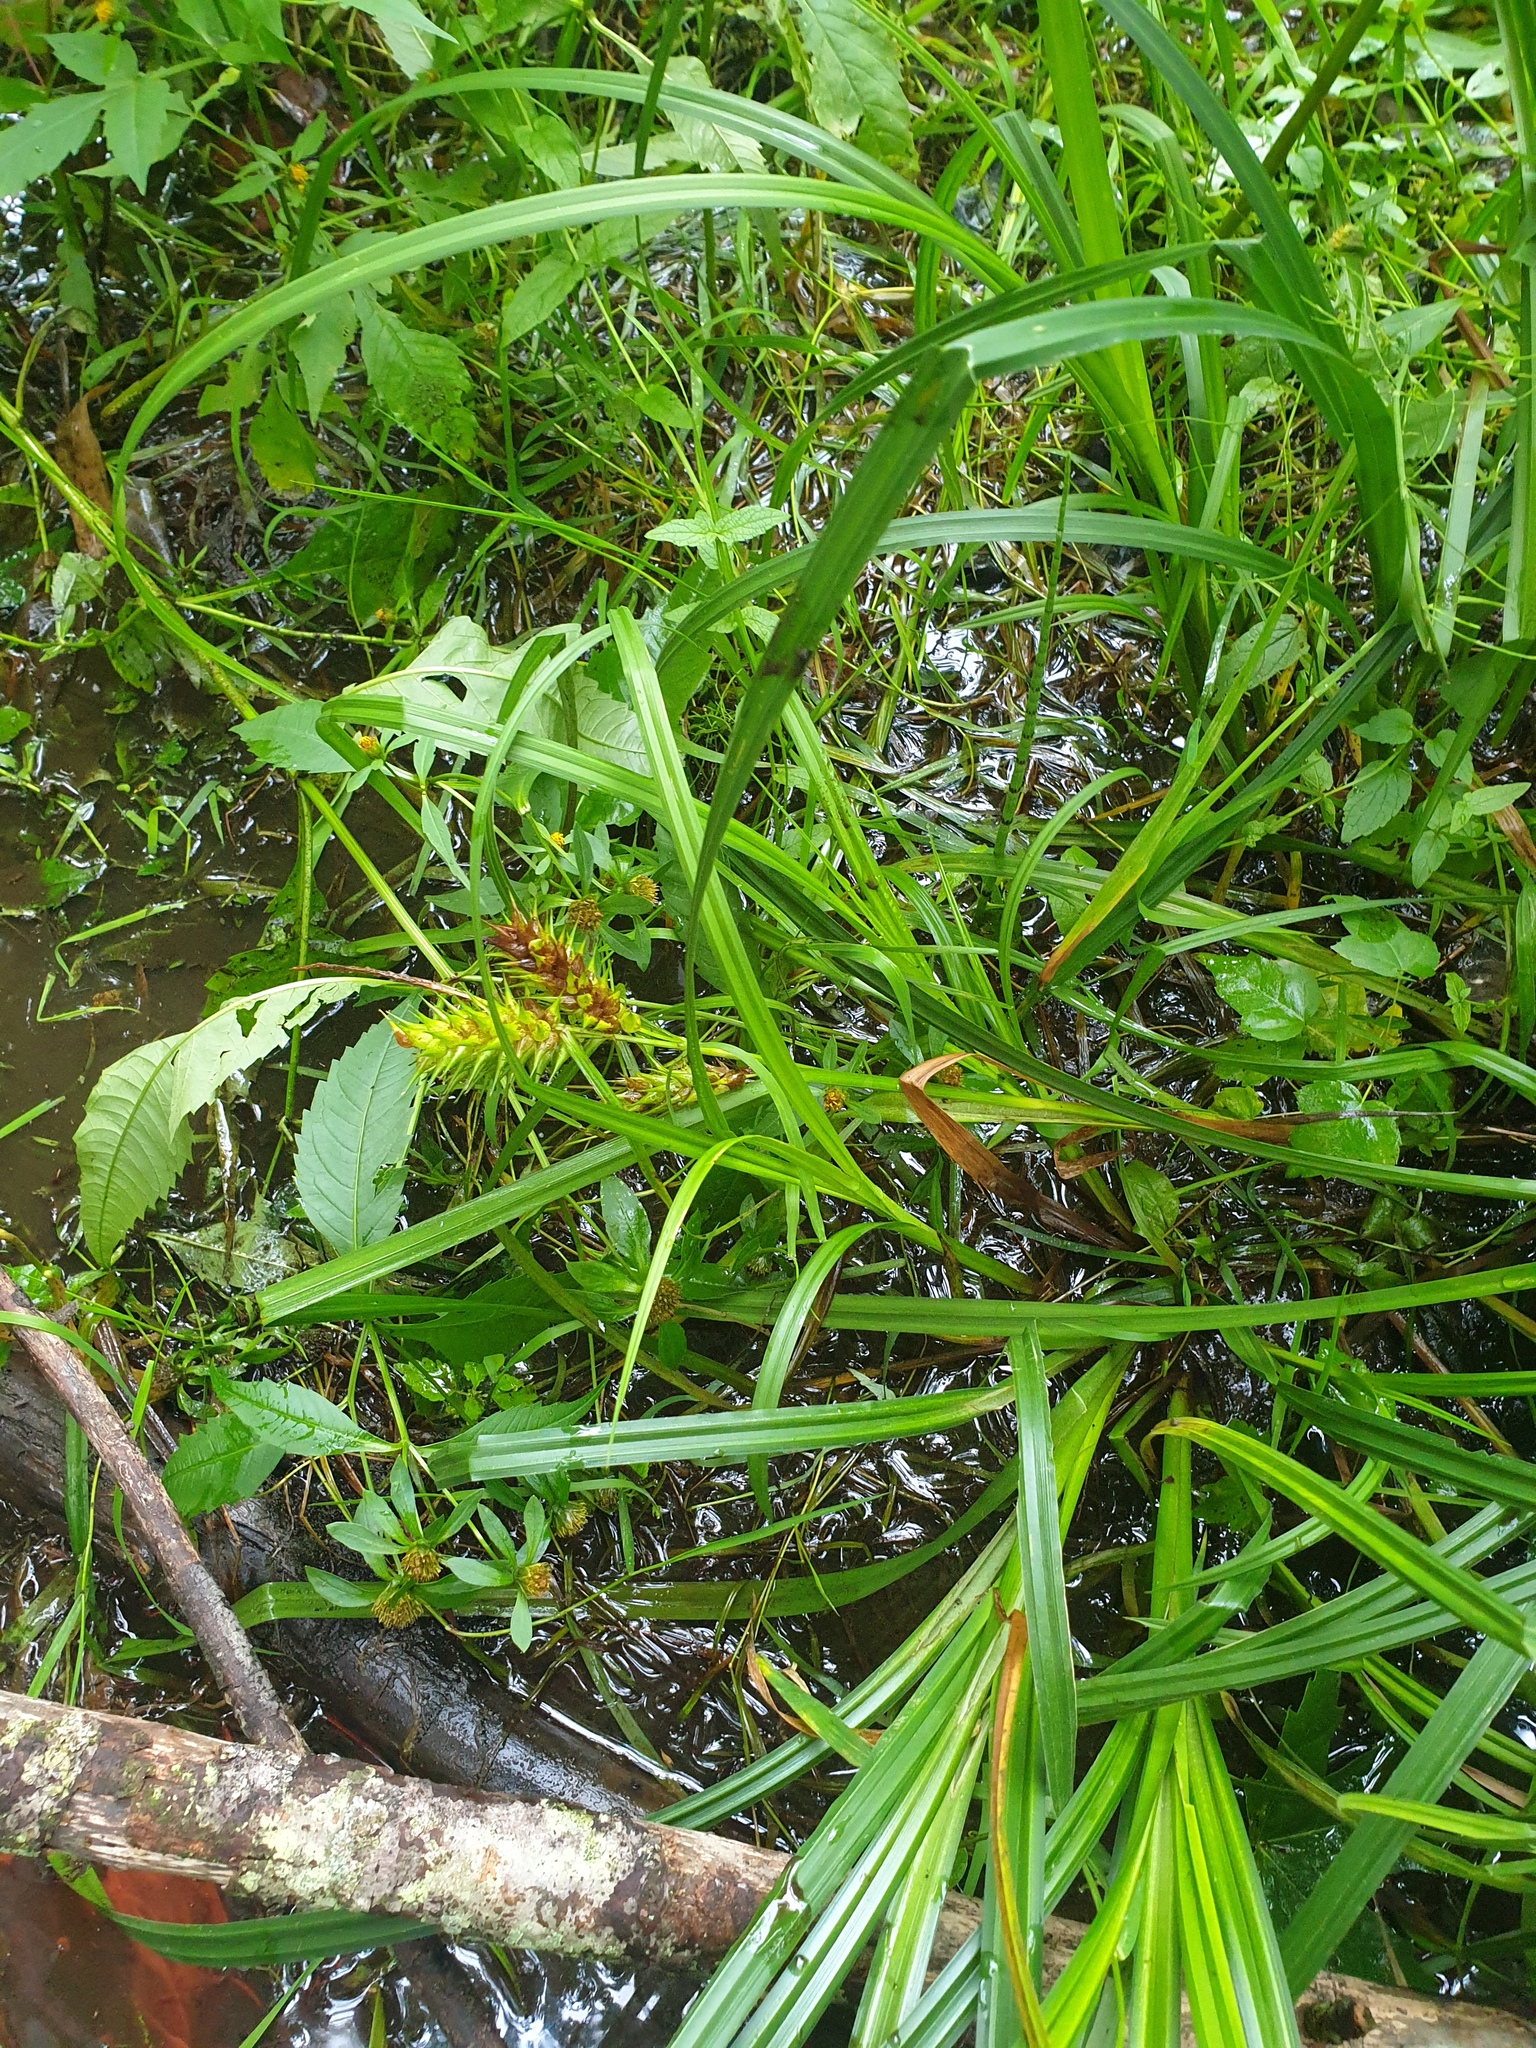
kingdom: Plantae
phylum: Tracheophyta
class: Liliopsida
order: Poales
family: Cyperaceae
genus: Carex
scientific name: Carex lupulina
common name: Hop sedge
